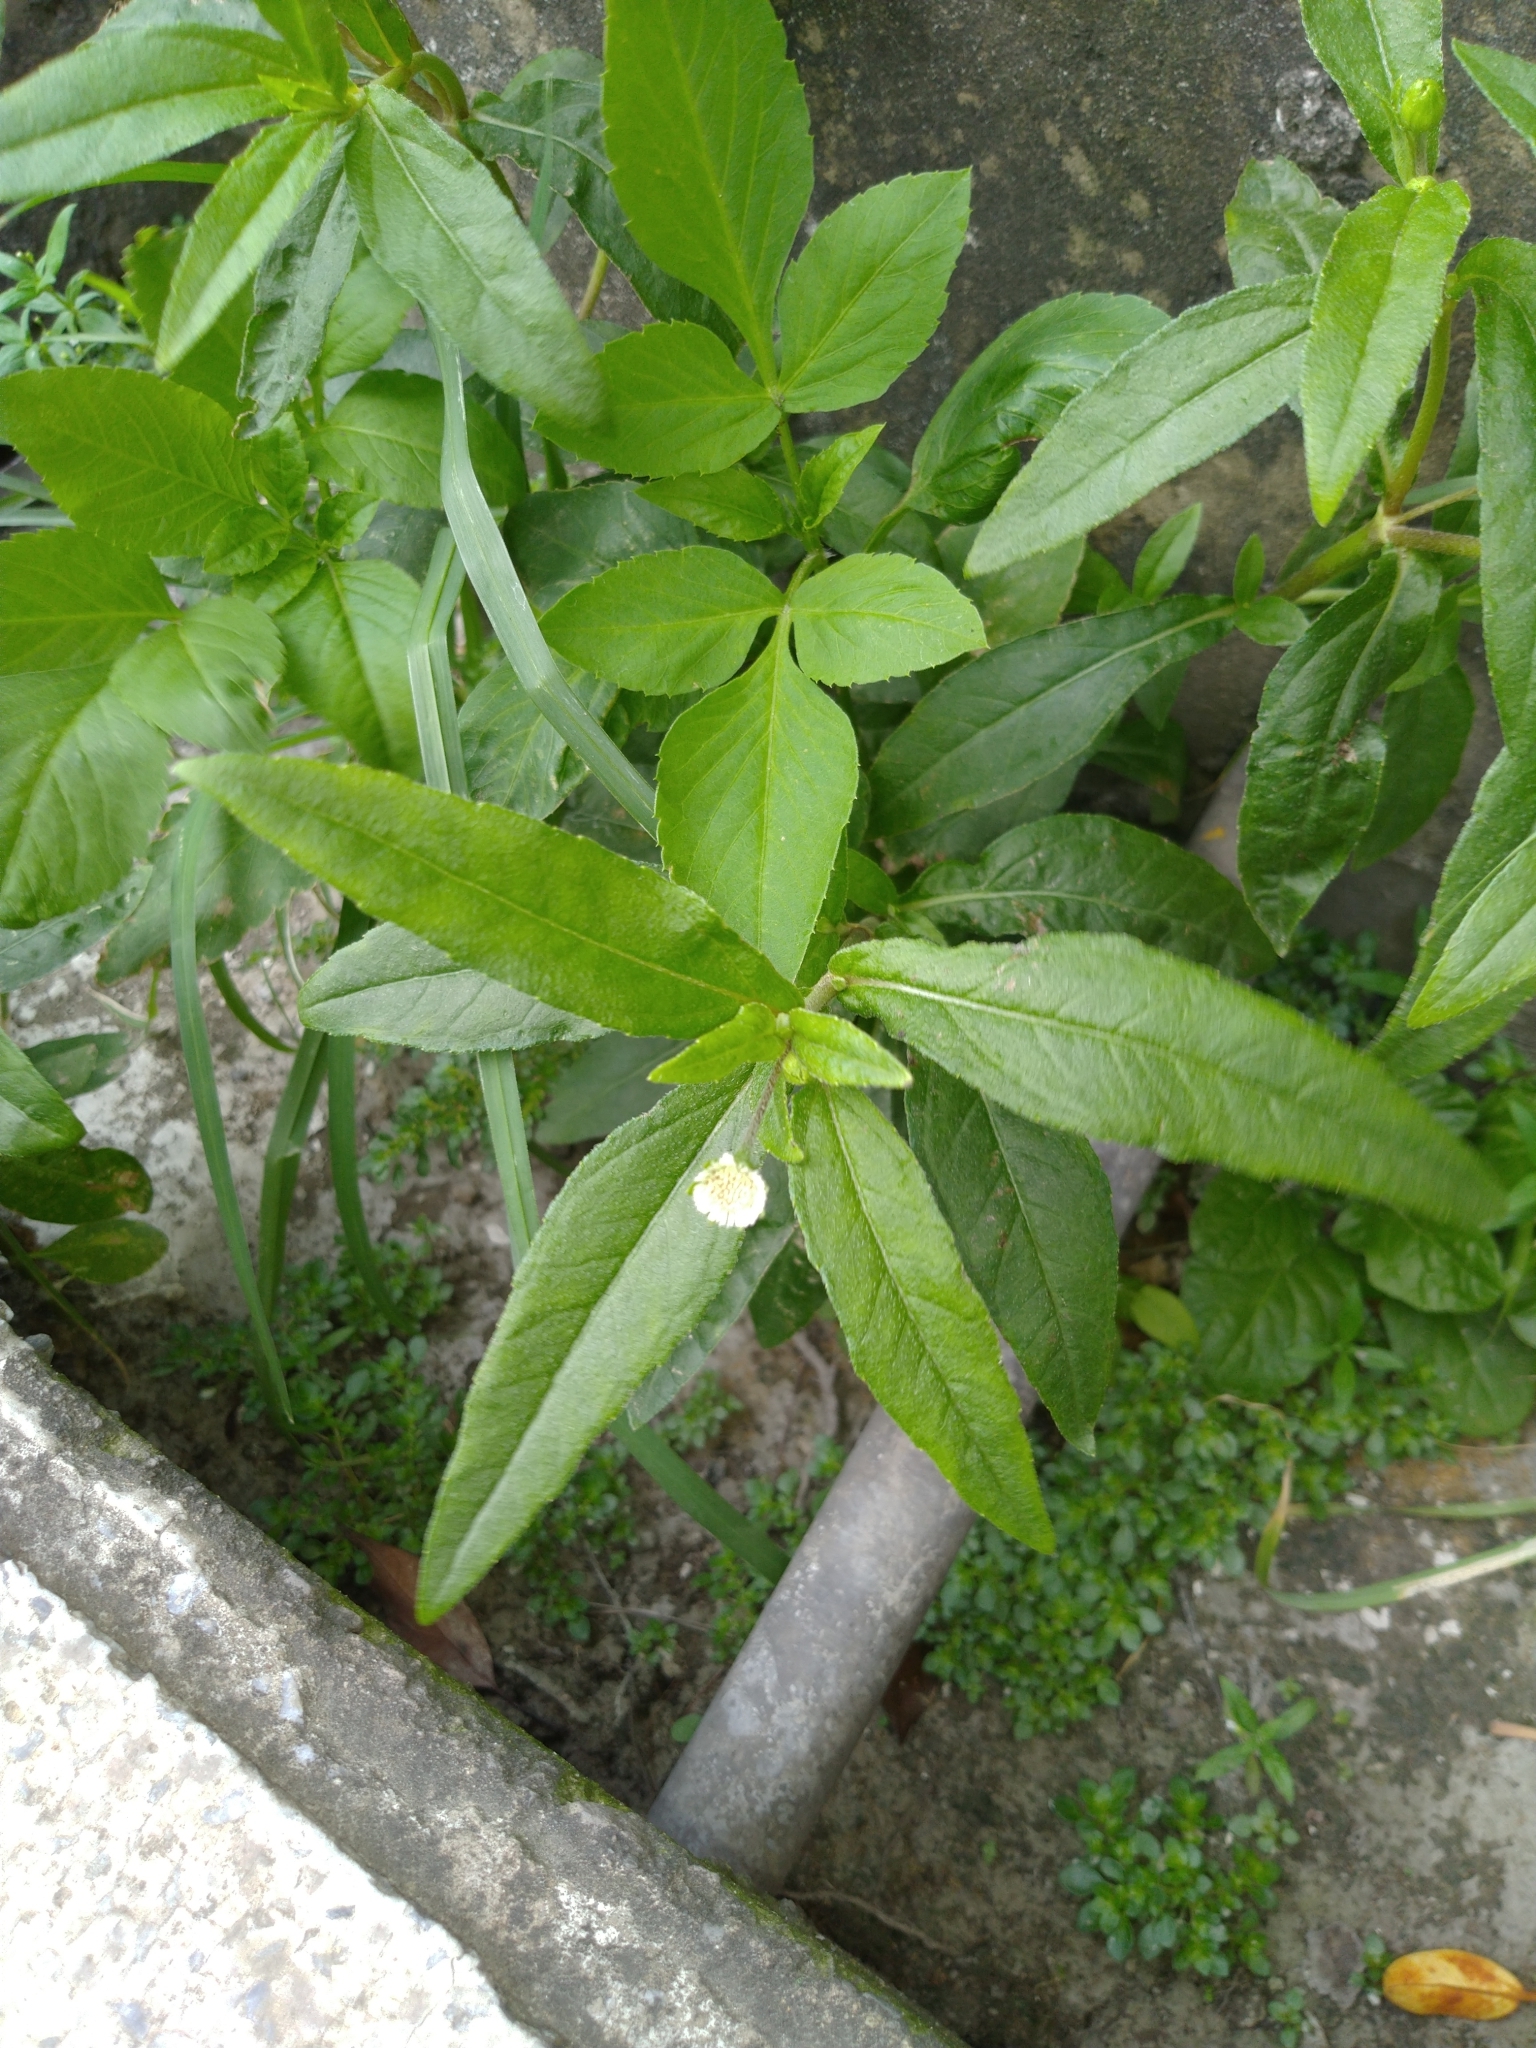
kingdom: Plantae
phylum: Tracheophyta
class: Magnoliopsida
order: Asterales
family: Asteraceae
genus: Eclipta
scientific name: Eclipta prostrata
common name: False daisy
